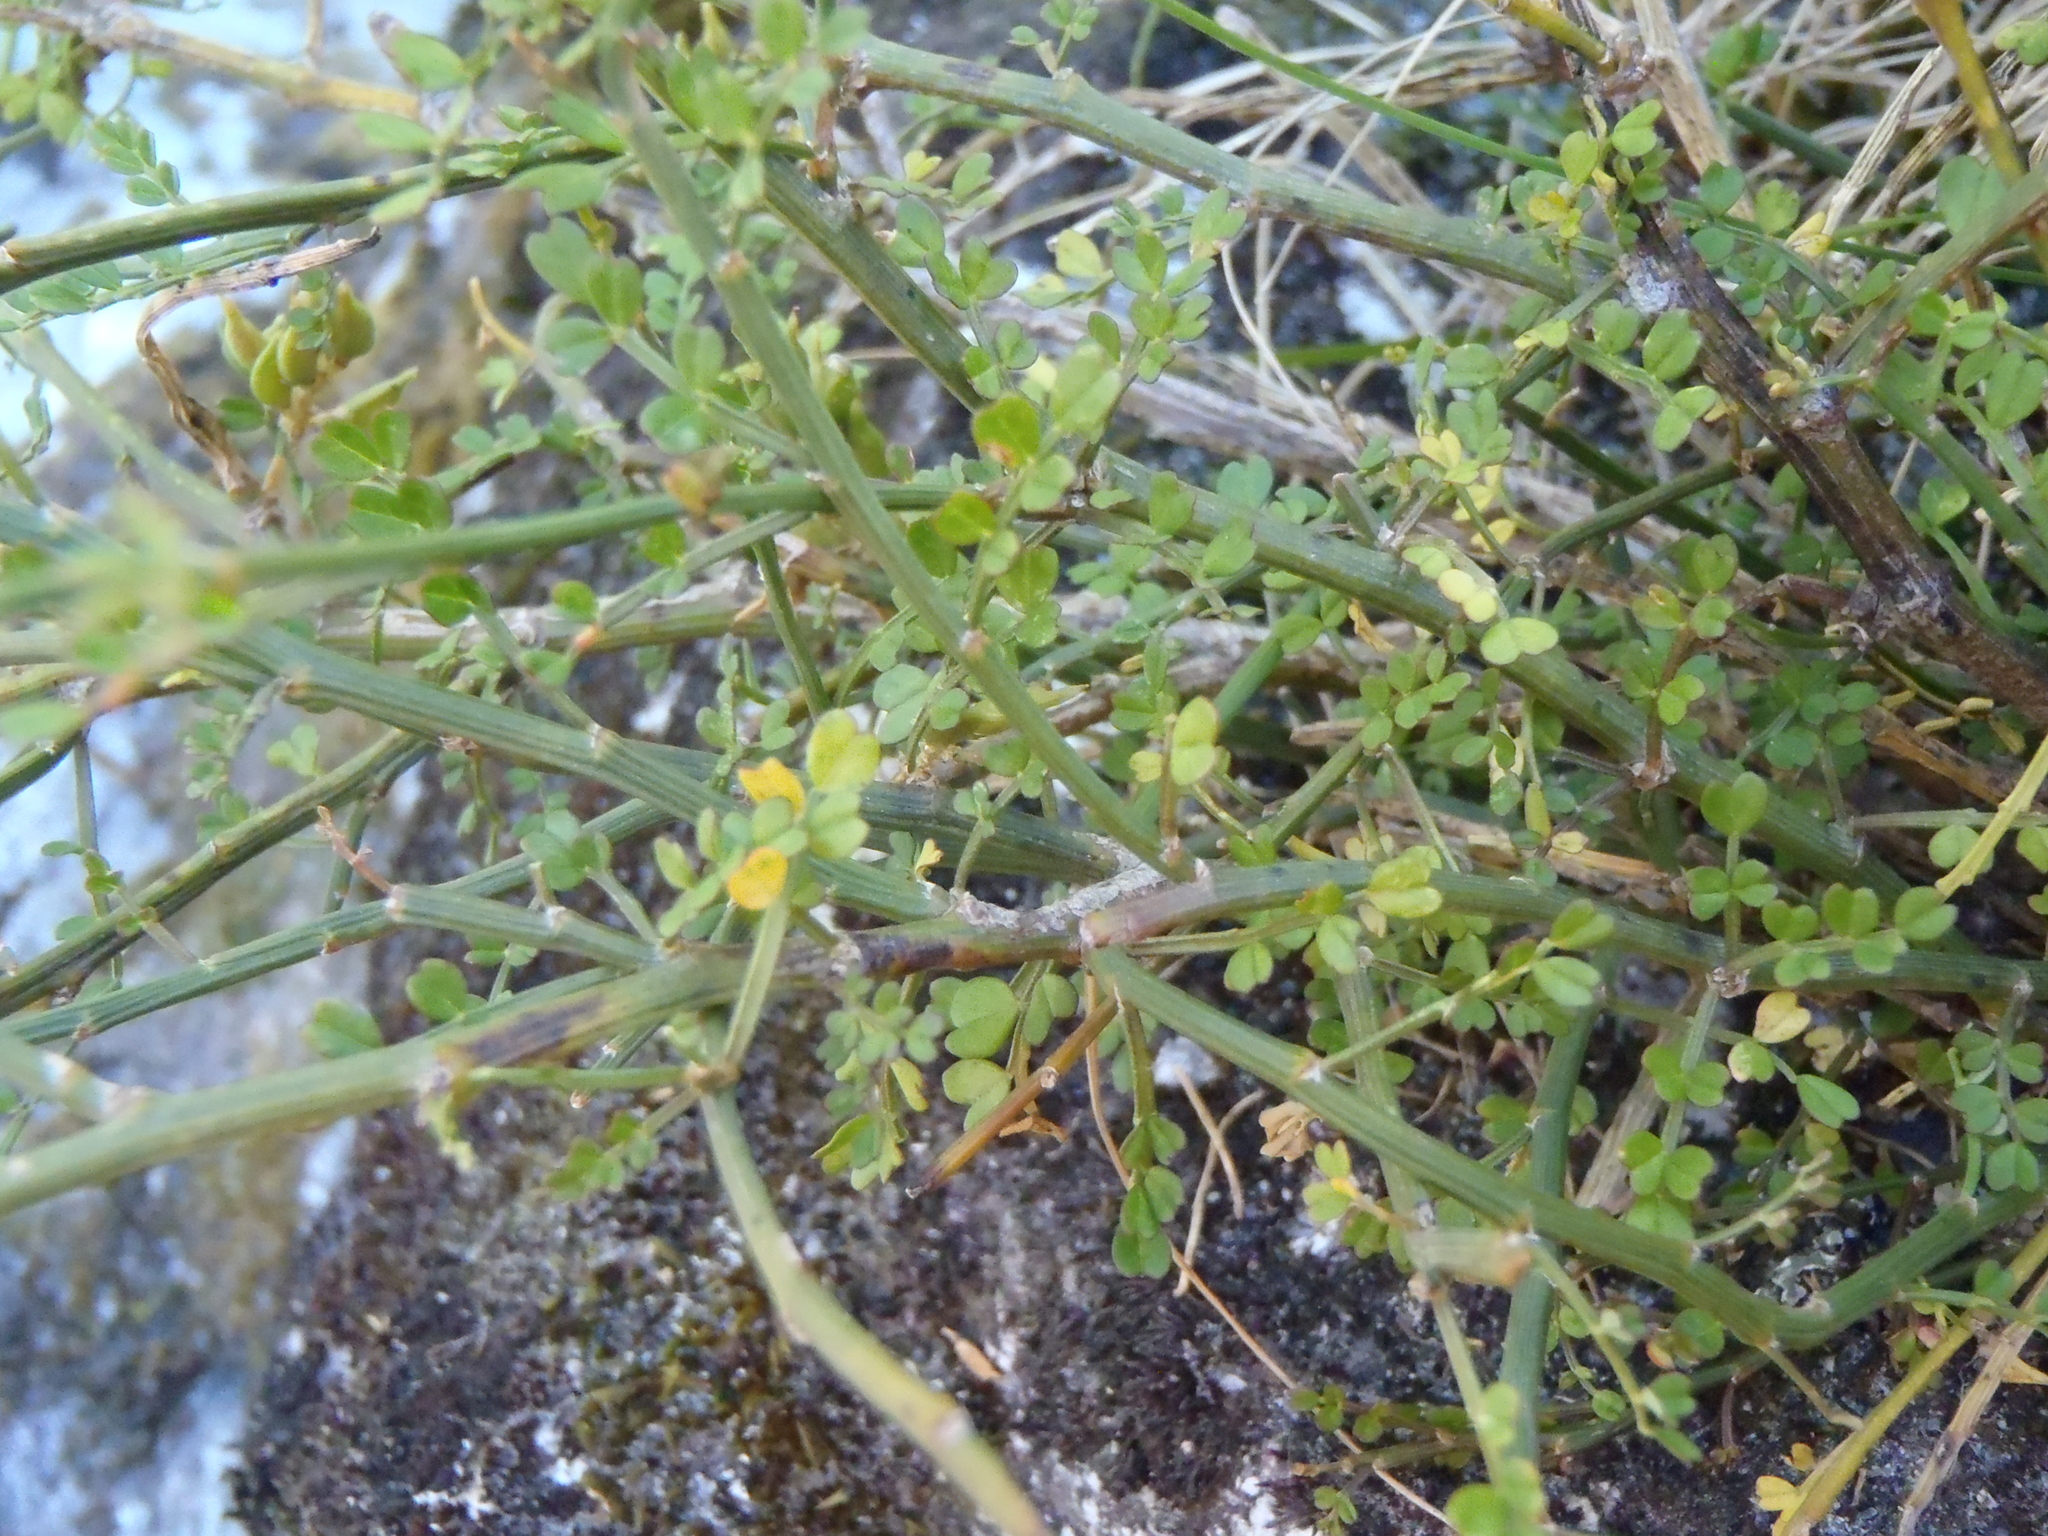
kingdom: Plantae
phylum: Tracheophyta
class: Magnoliopsida
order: Fabales
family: Fabaceae
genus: Carmichaelia
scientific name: Carmichaelia arborea
